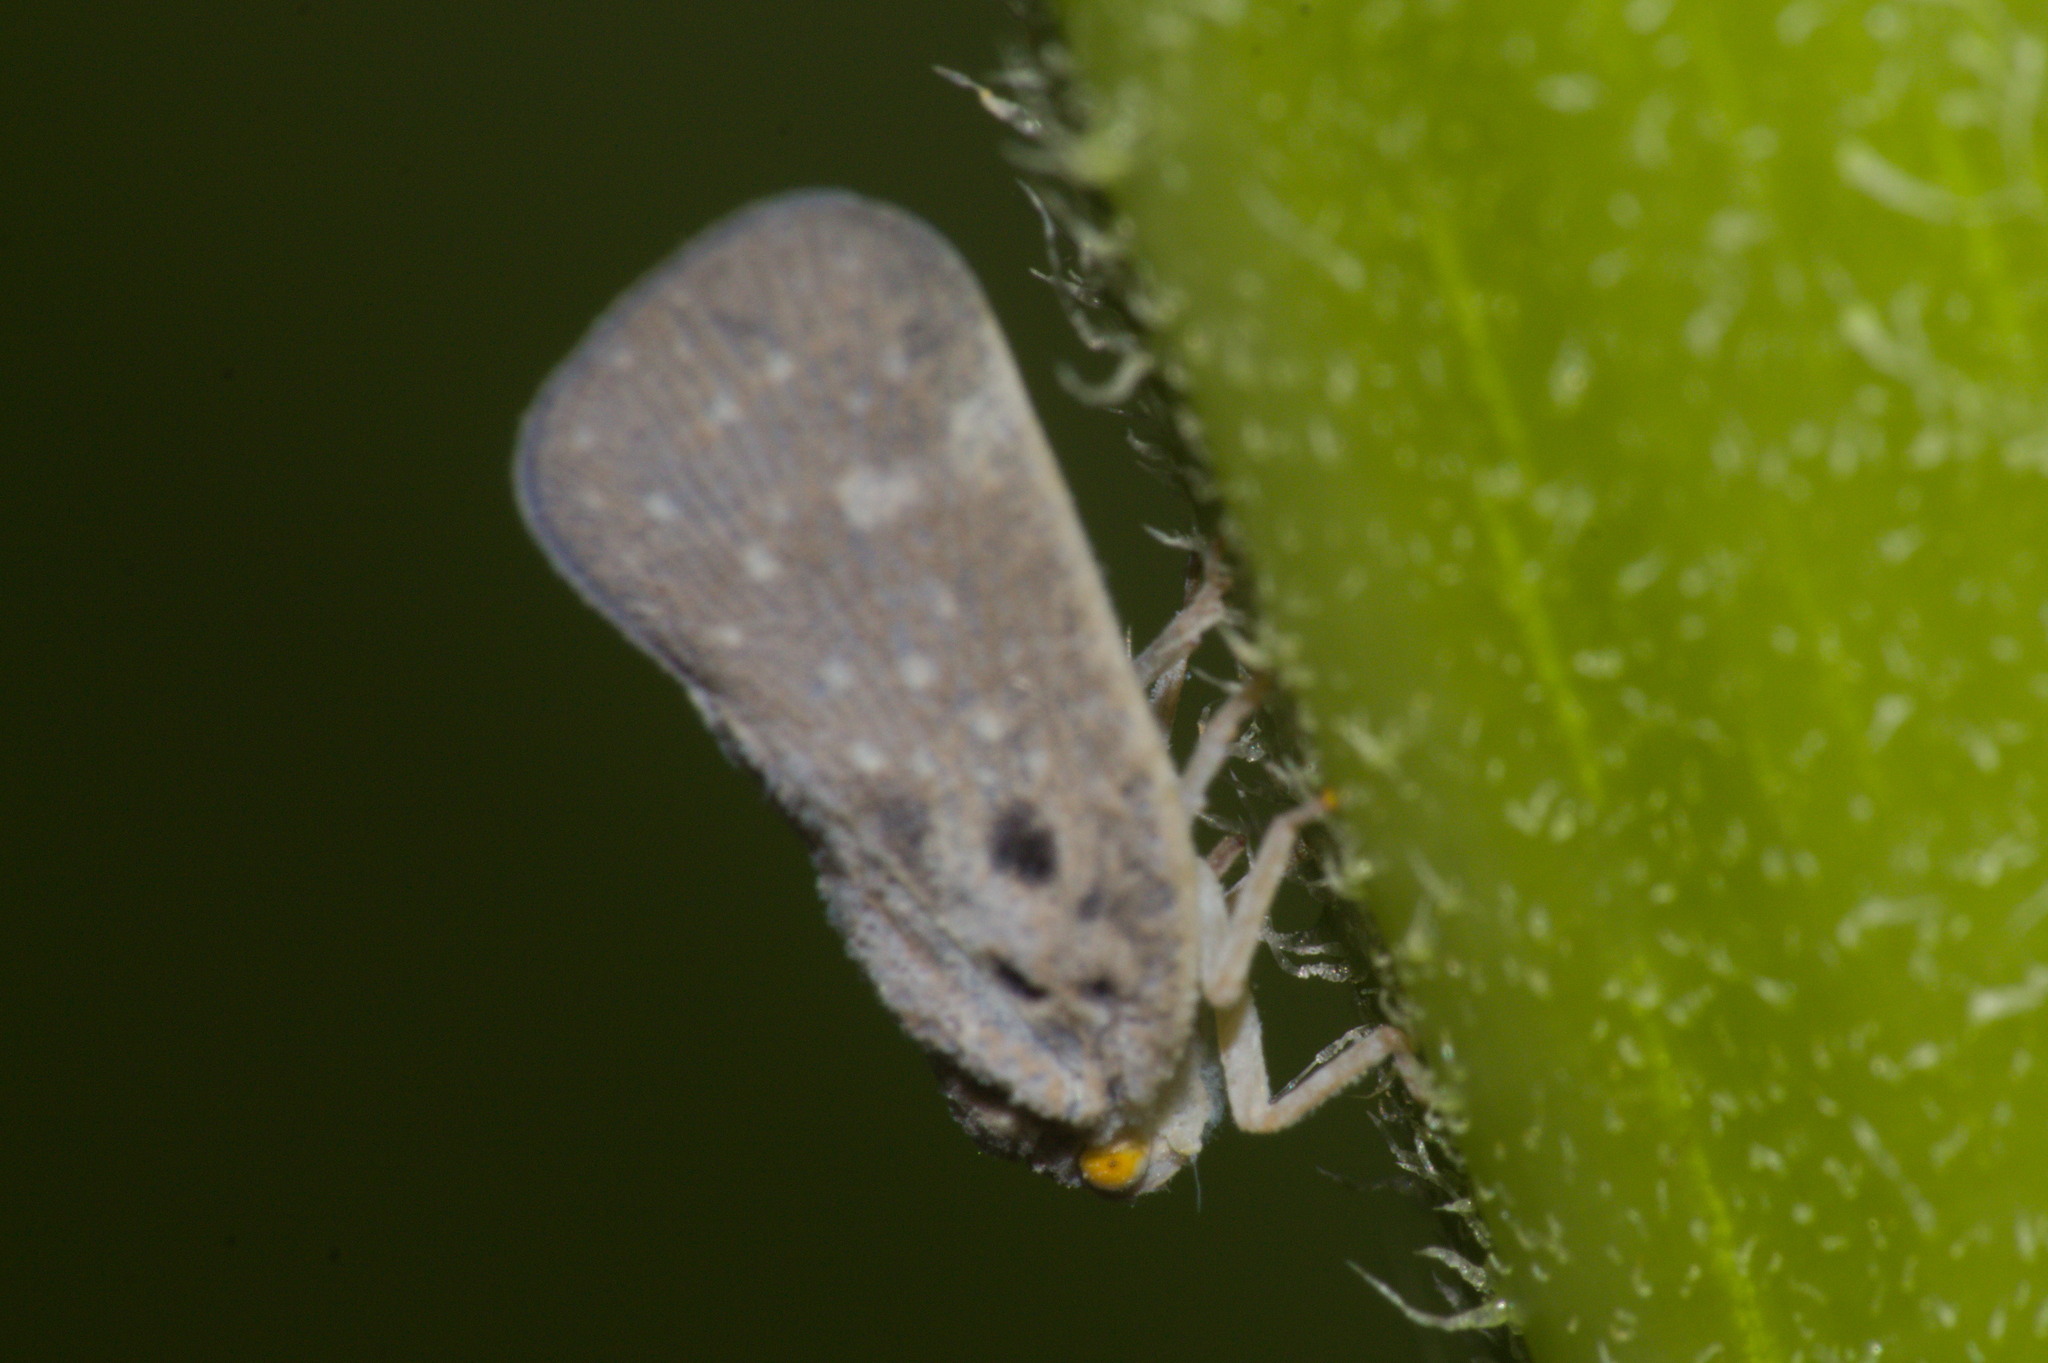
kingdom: Animalia
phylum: Arthropoda
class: Insecta
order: Hemiptera
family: Flatidae
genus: Metcalfa
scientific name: Metcalfa pruinosa
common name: Citrus flatid planthopper
